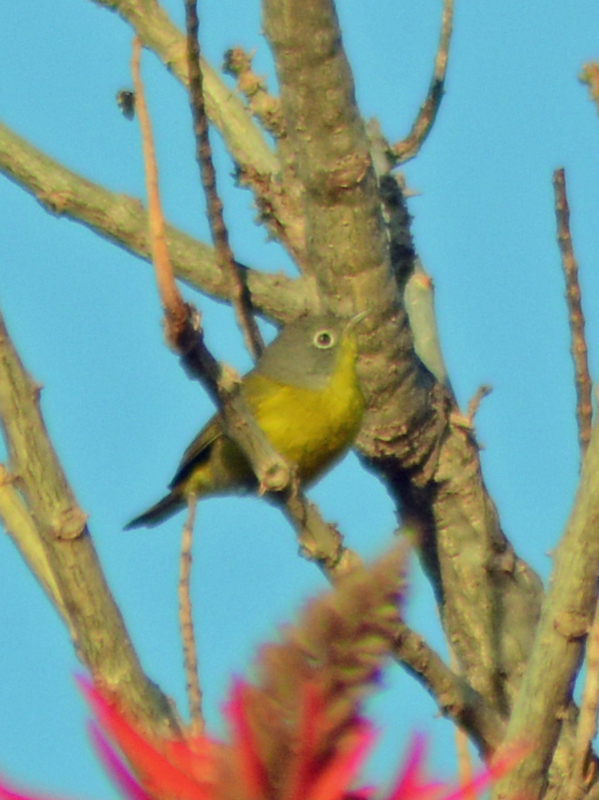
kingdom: Animalia
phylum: Chordata
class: Aves
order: Passeriformes
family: Parulidae
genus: Leiothlypis
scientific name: Leiothlypis ruficapilla
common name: Nashville warbler
